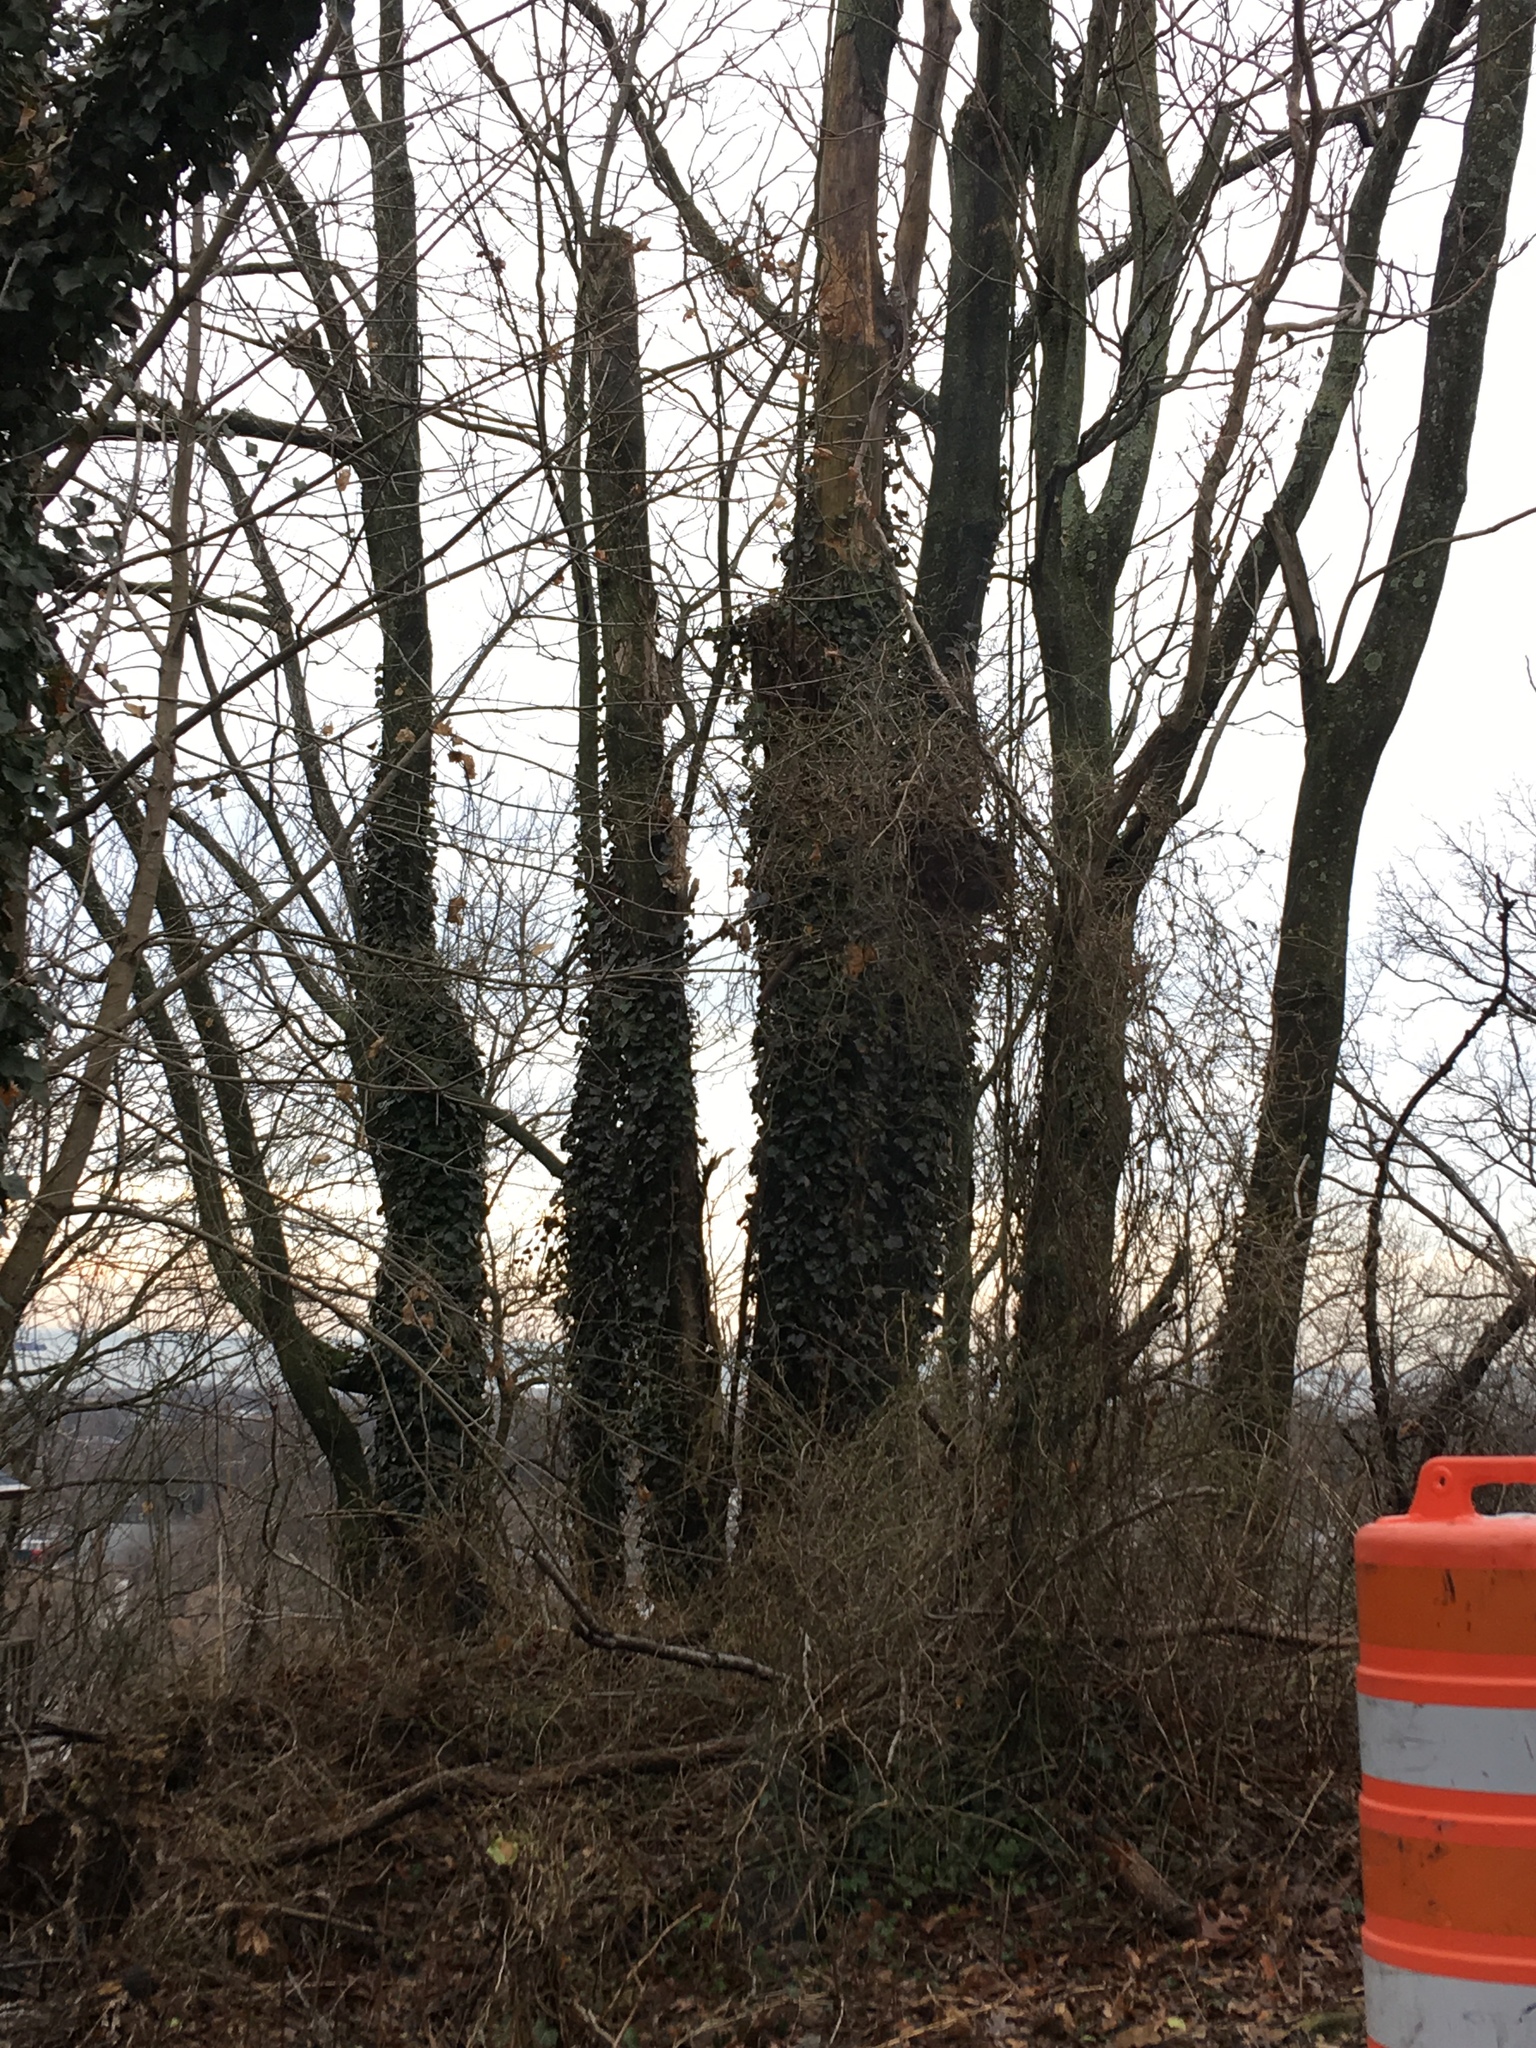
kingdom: Plantae
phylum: Tracheophyta
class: Magnoliopsida
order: Apiales
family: Araliaceae
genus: Hedera
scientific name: Hedera helix
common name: Ivy
